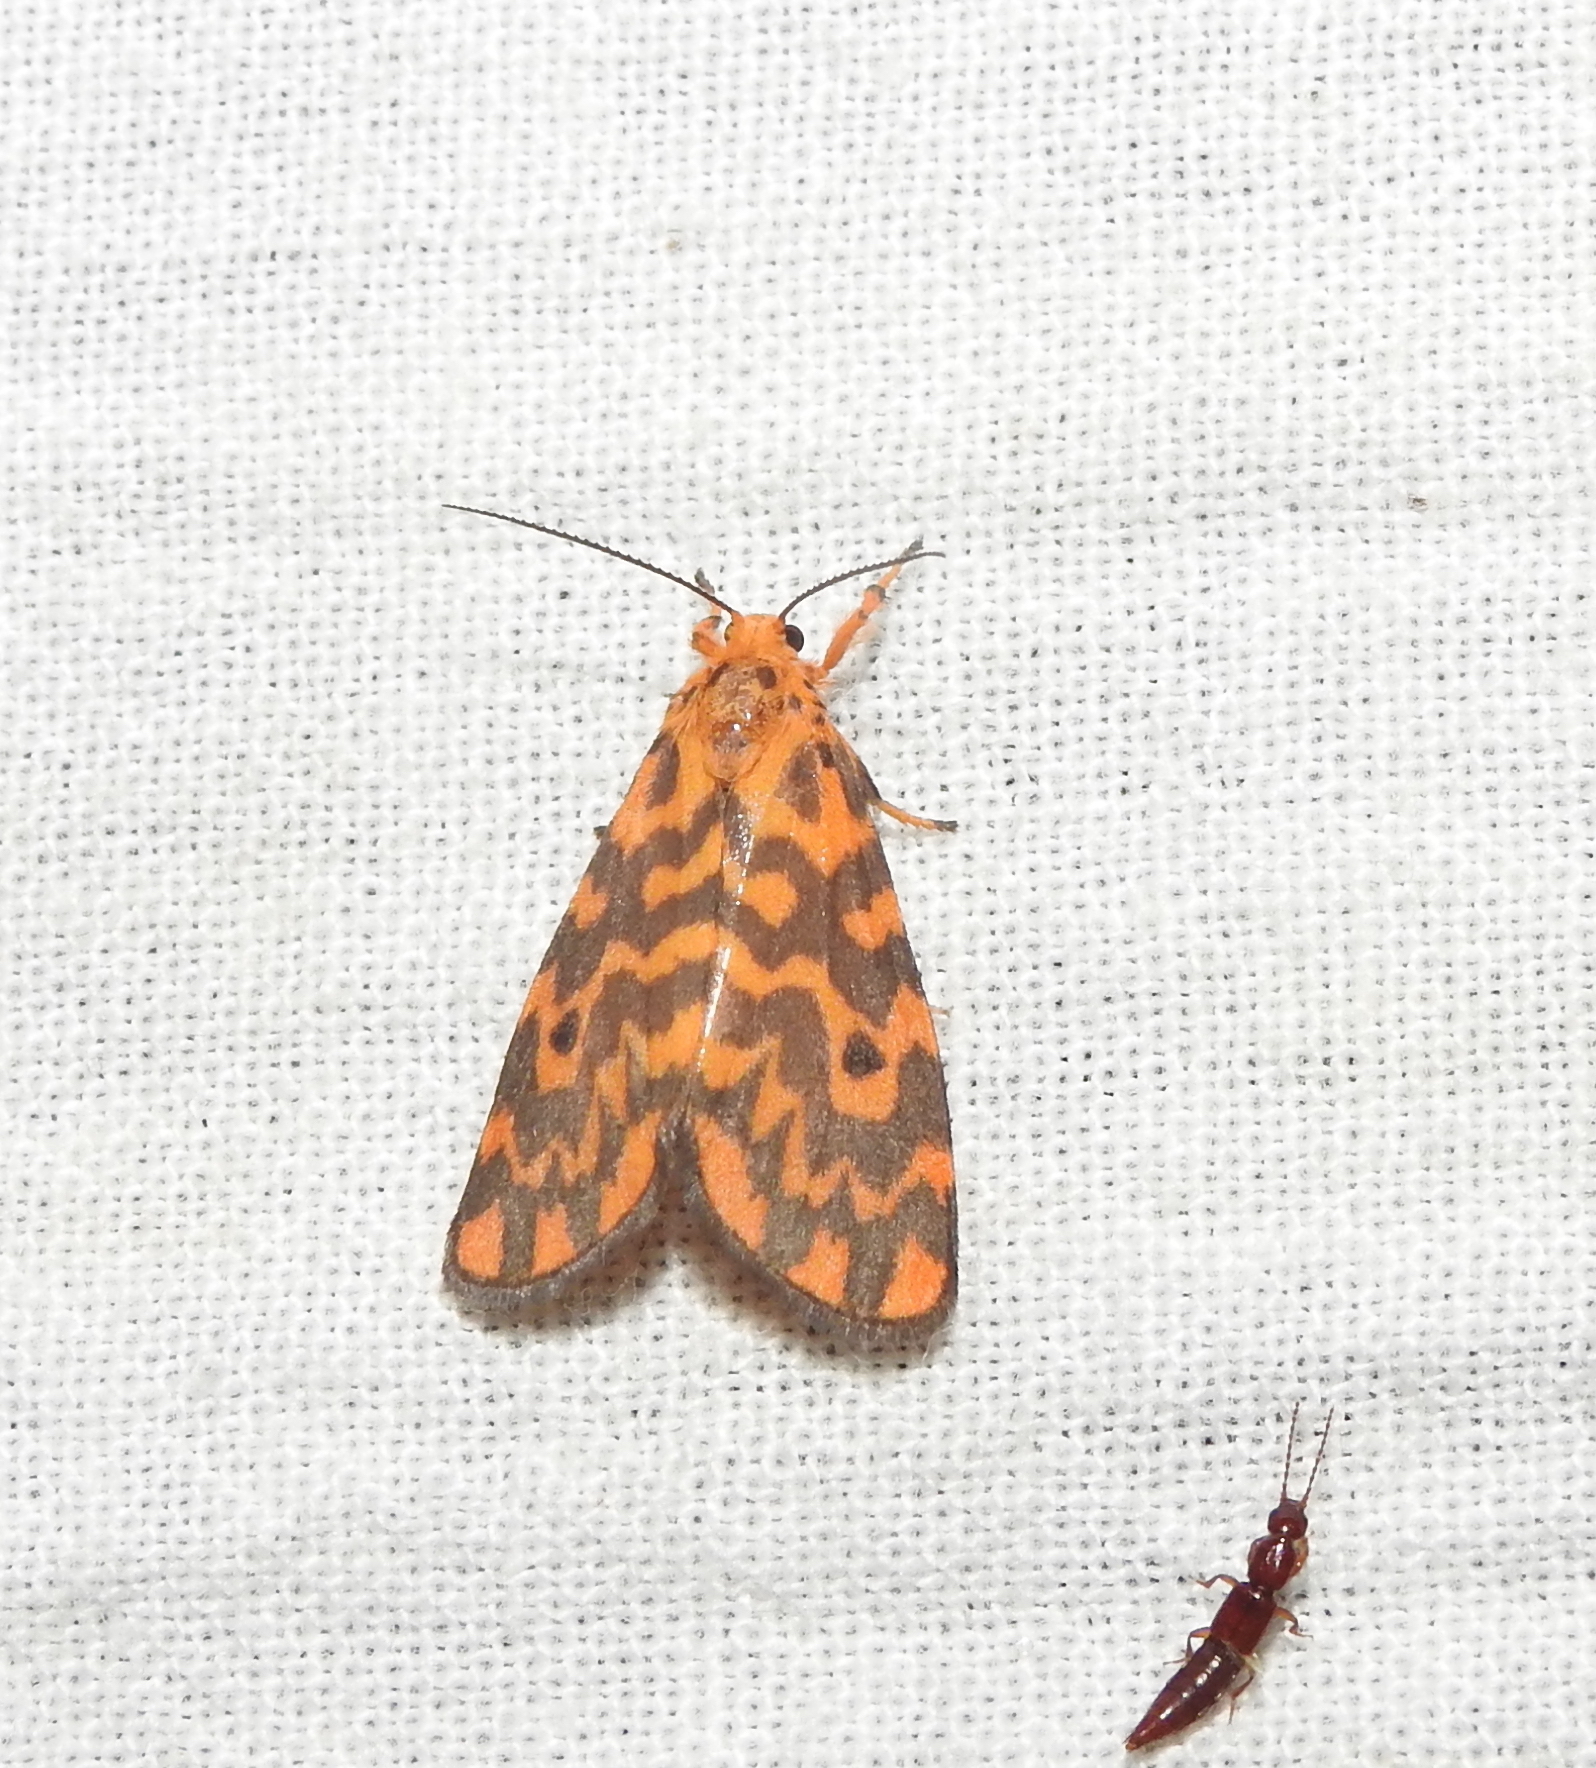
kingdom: Animalia
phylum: Arthropoda
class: Insecta
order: Lepidoptera
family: Erebidae
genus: Nepita
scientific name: Nepita conferta
